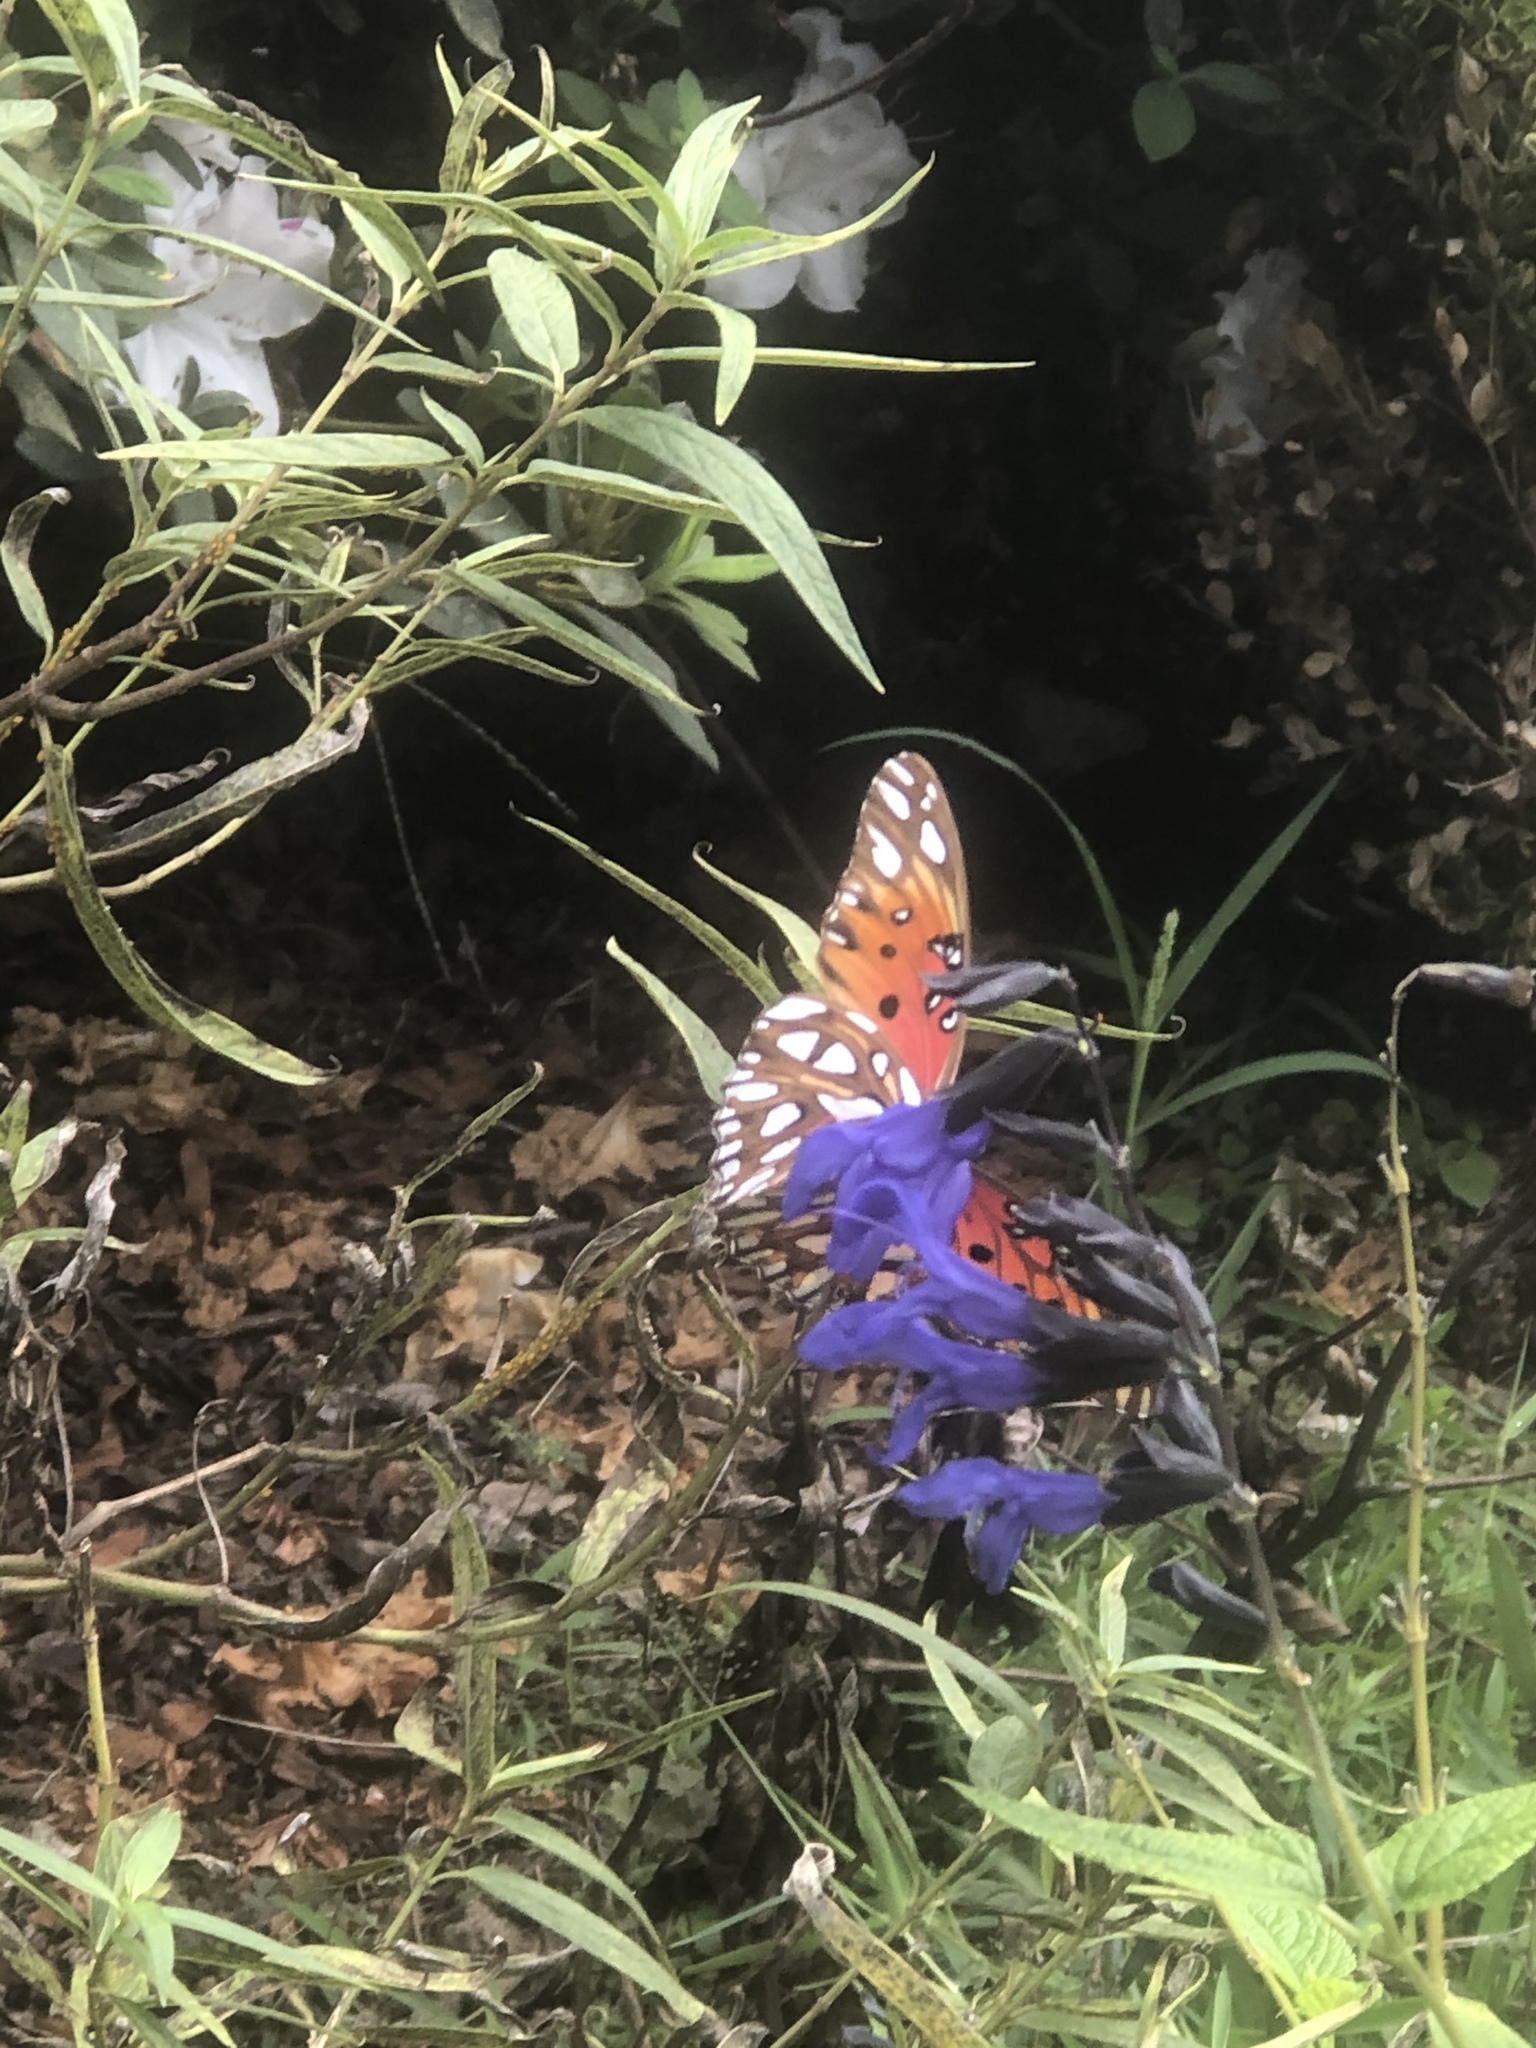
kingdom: Animalia
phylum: Arthropoda
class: Insecta
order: Lepidoptera
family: Nymphalidae
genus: Dione
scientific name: Dione vanillae
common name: Gulf fritillary
